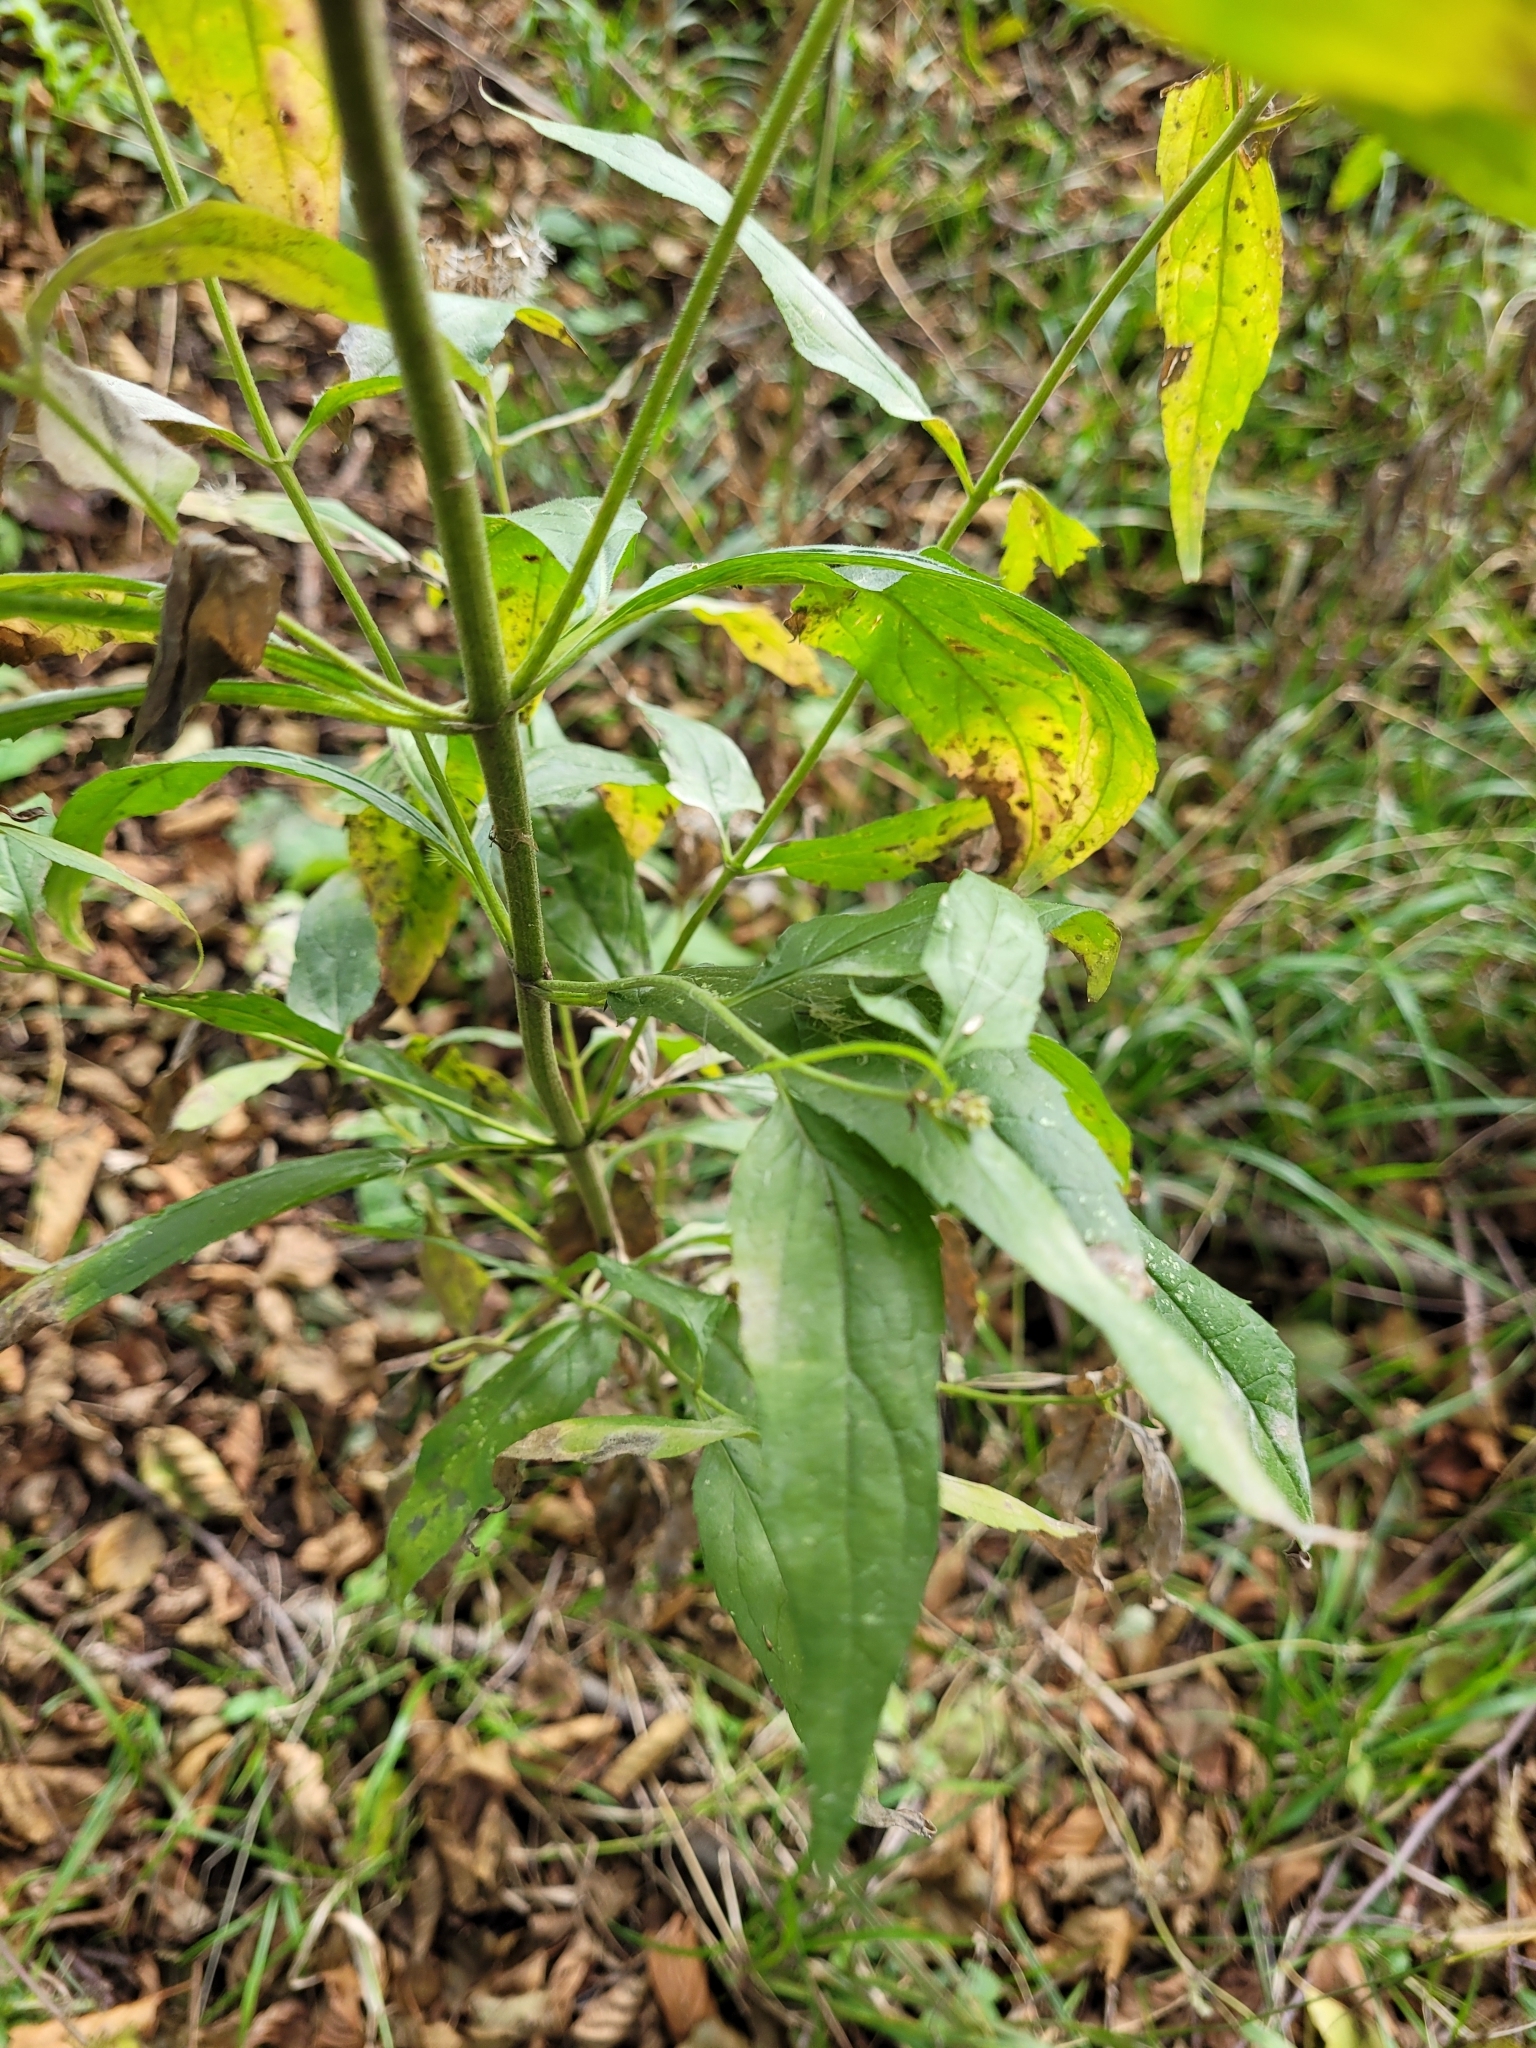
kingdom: Plantae
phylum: Tracheophyta
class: Magnoliopsida
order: Asterales
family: Asteraceae
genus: Eupatorium
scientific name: Eupatorium cannabinum
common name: Hemp-agrimony
